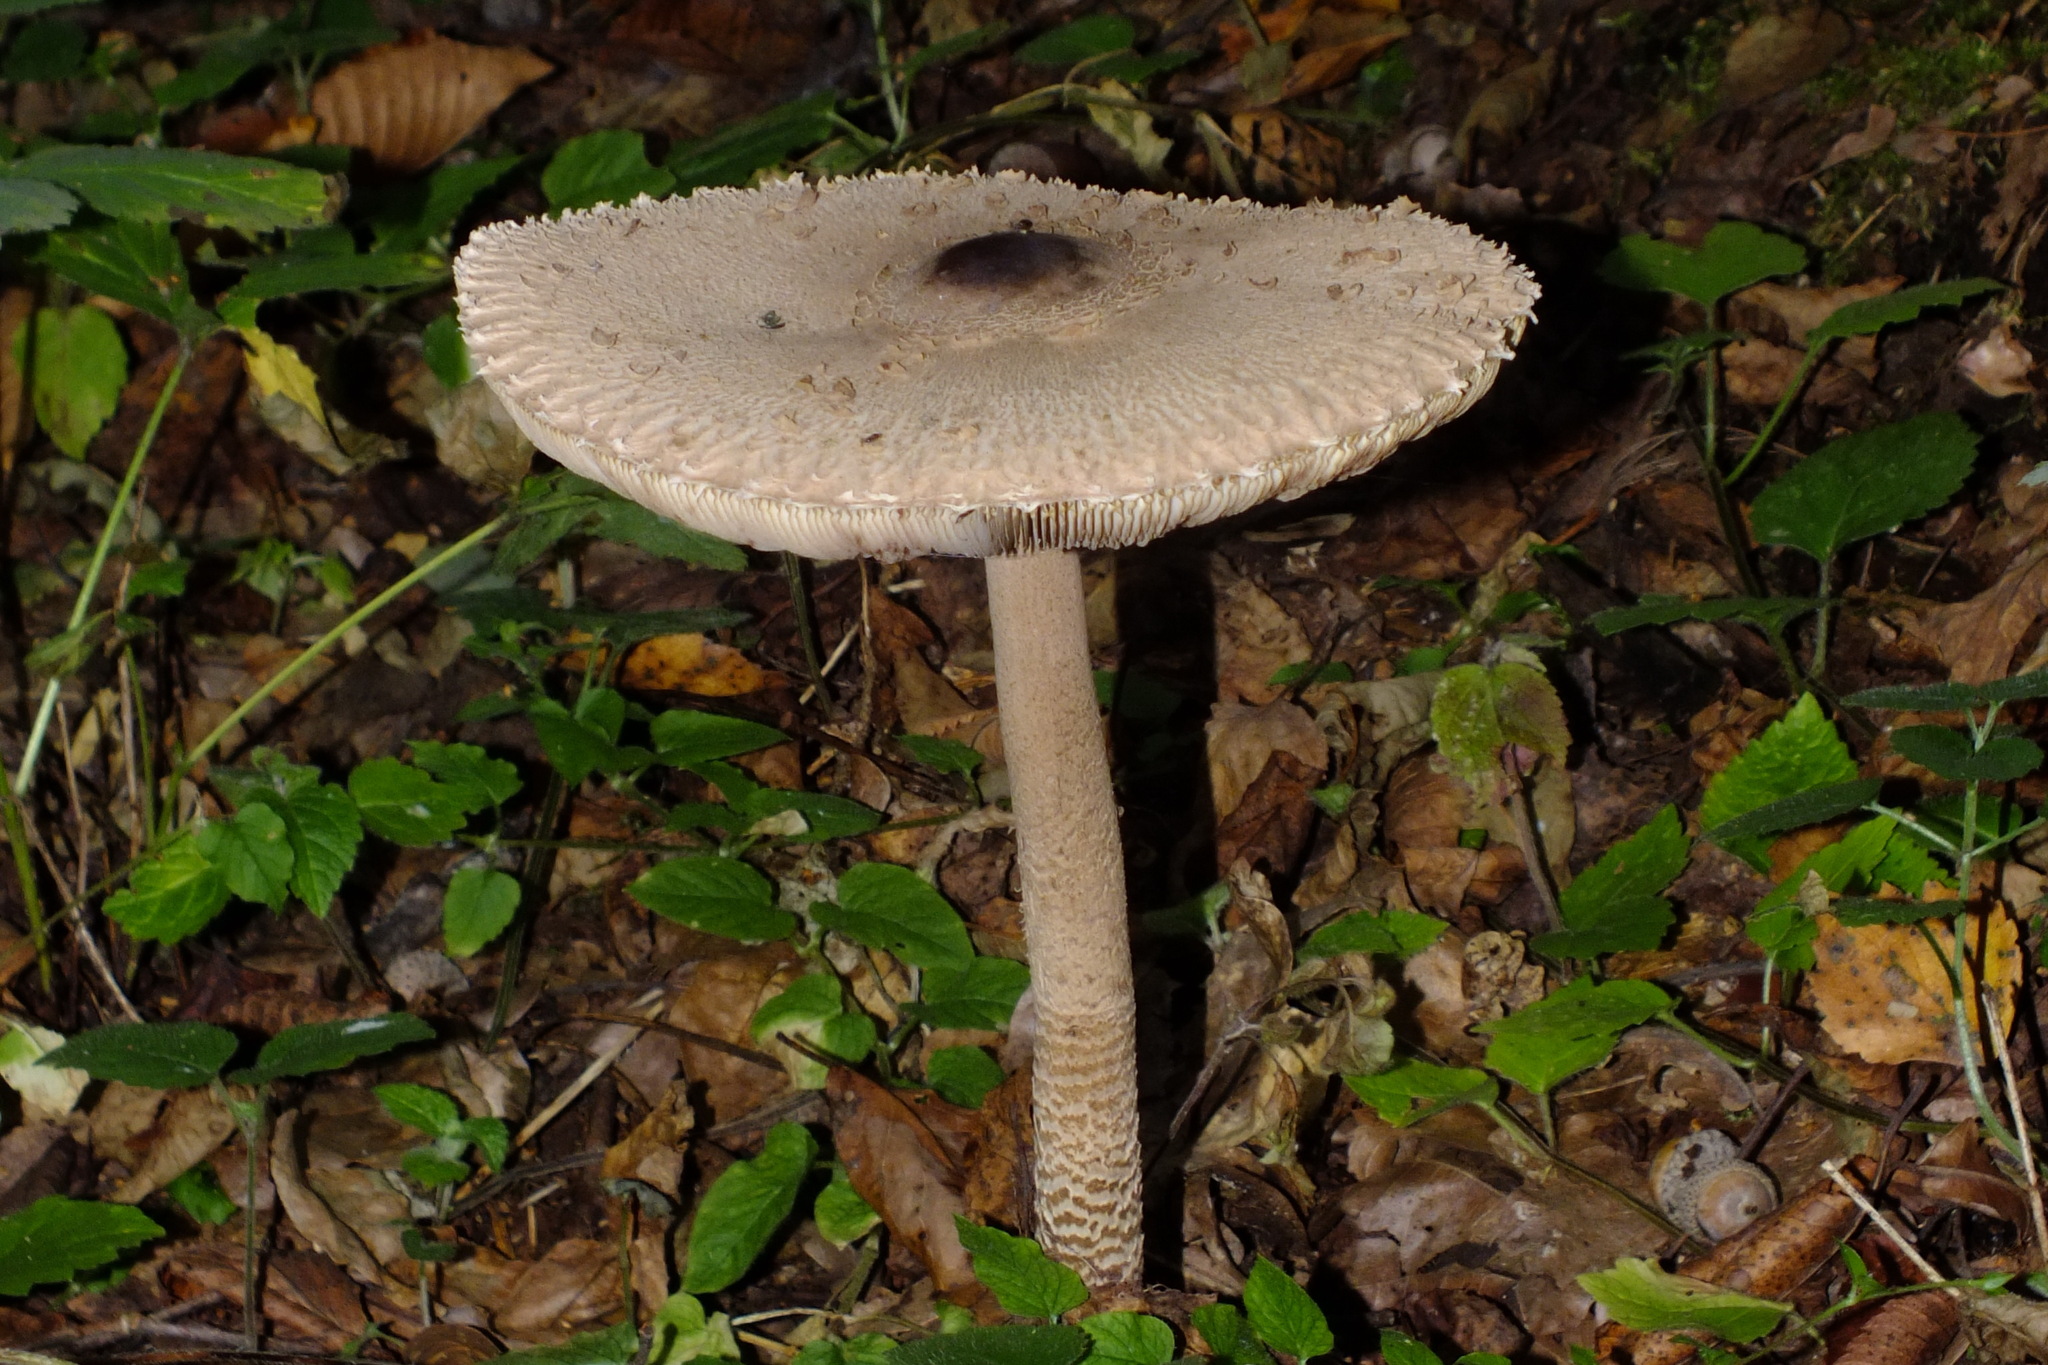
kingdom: Fungi
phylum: Basidiomycota
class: Agaricomycetes
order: Agaricales
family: Agaricaceae
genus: Macrolepiota
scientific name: Macrolepiota procera
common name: Parasol
